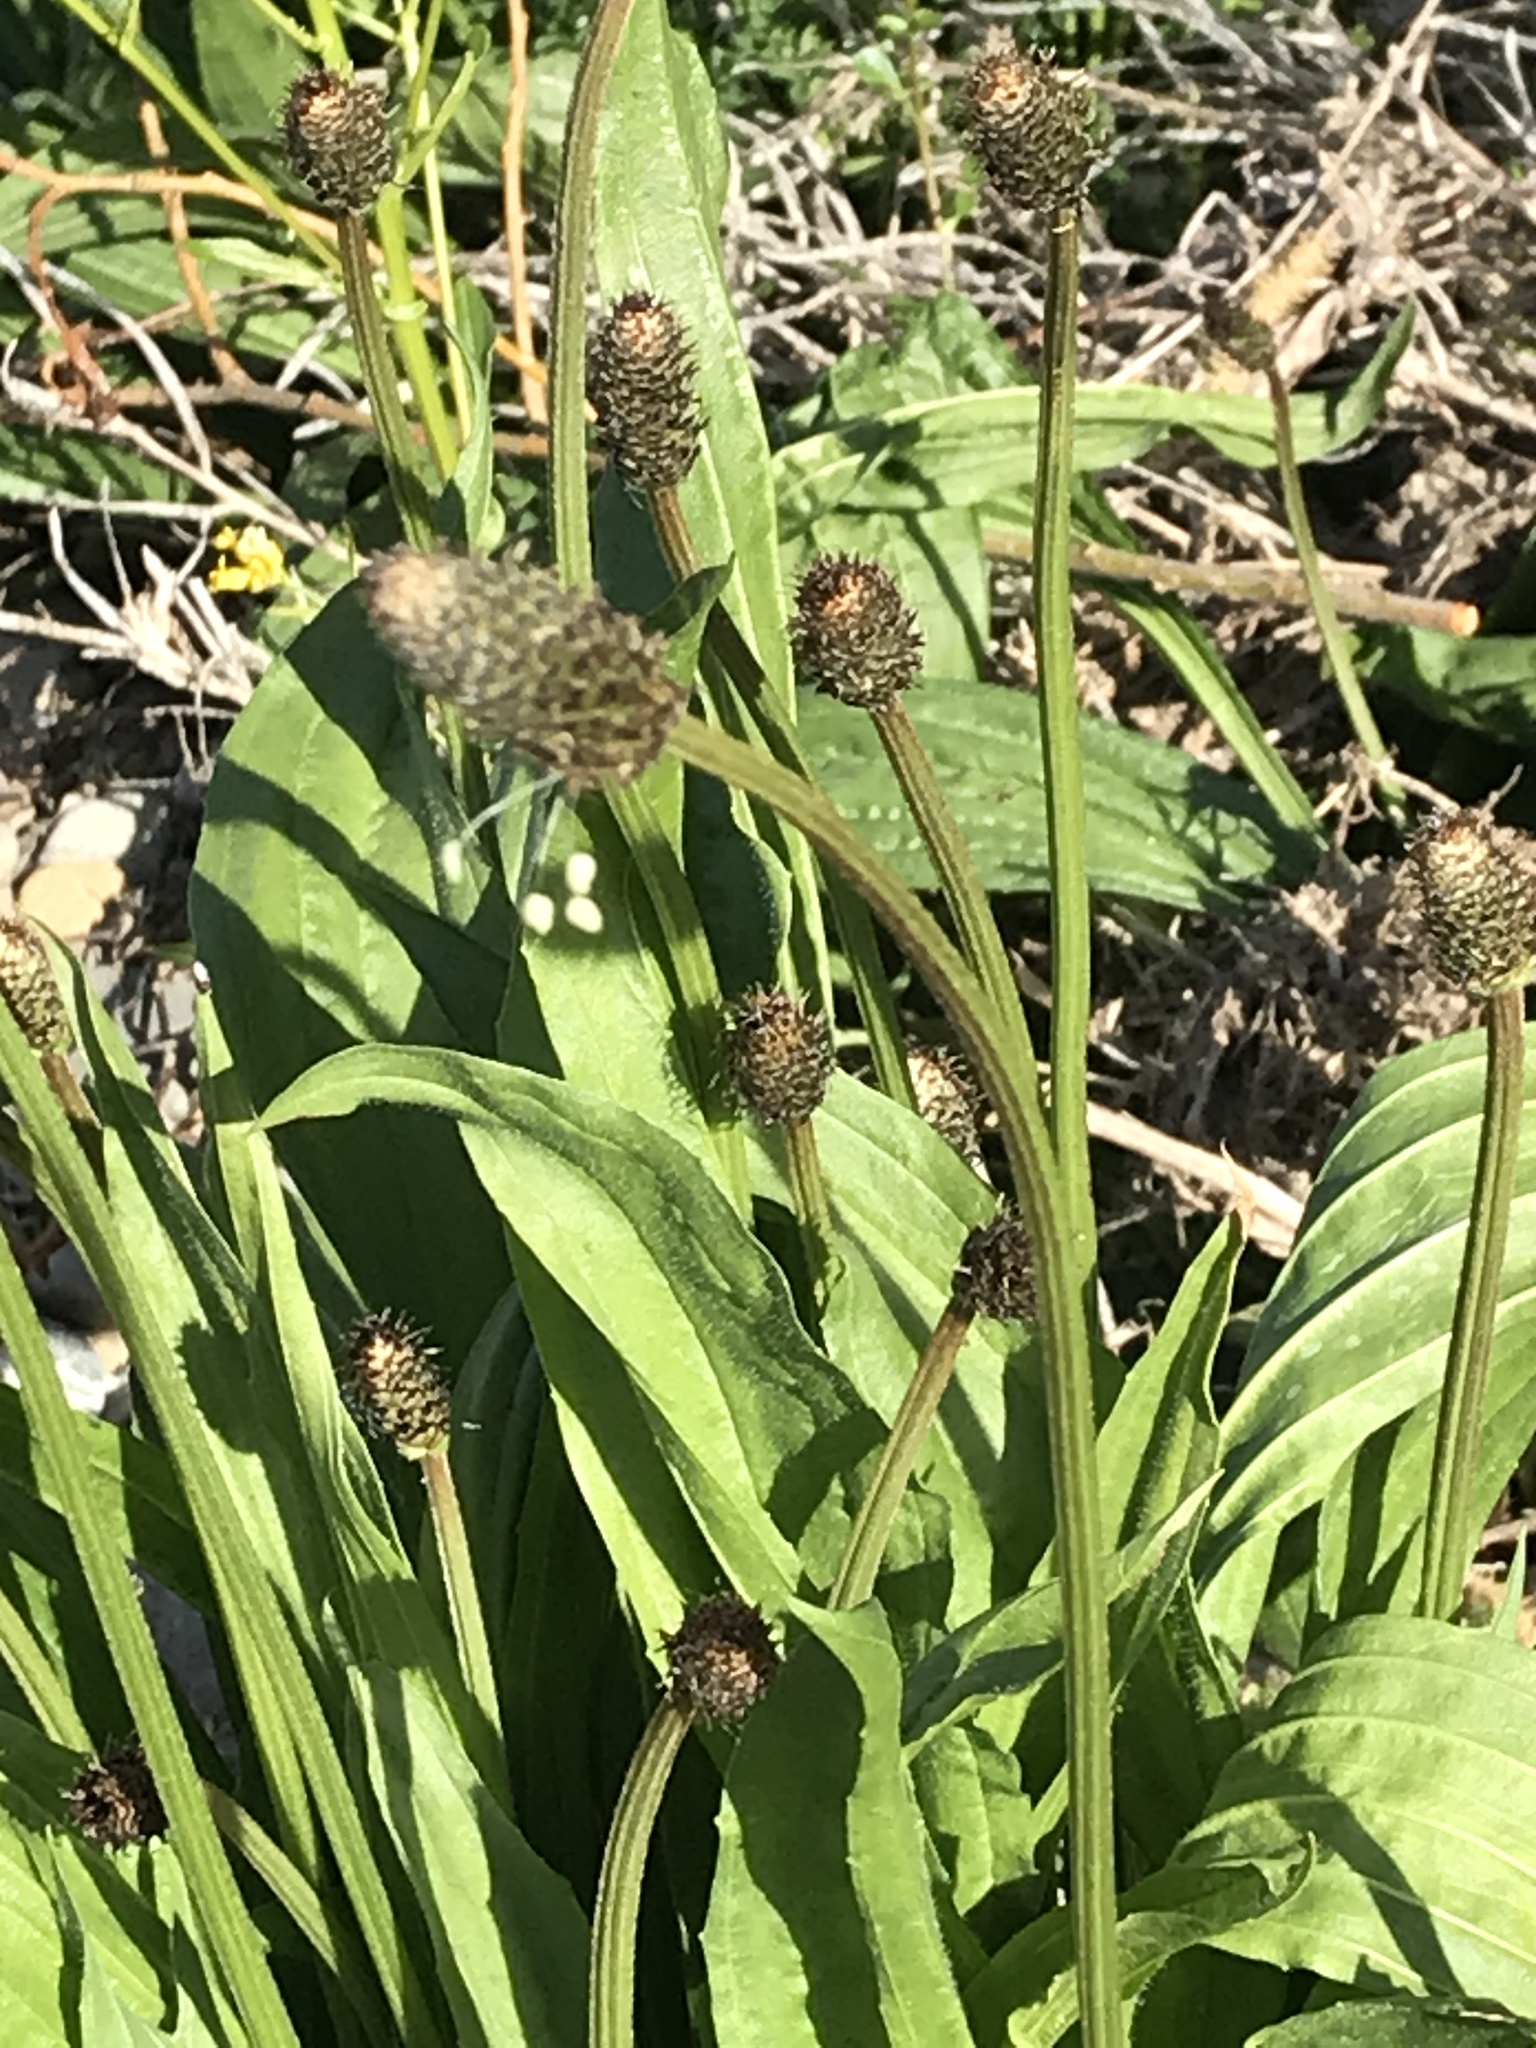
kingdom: Plantae
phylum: Tracheophyta
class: Magnoliopsida
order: Lamiales
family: Plantaginaceae
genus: Plantago
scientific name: Plantago lanceolata
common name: Ribwort plantain
